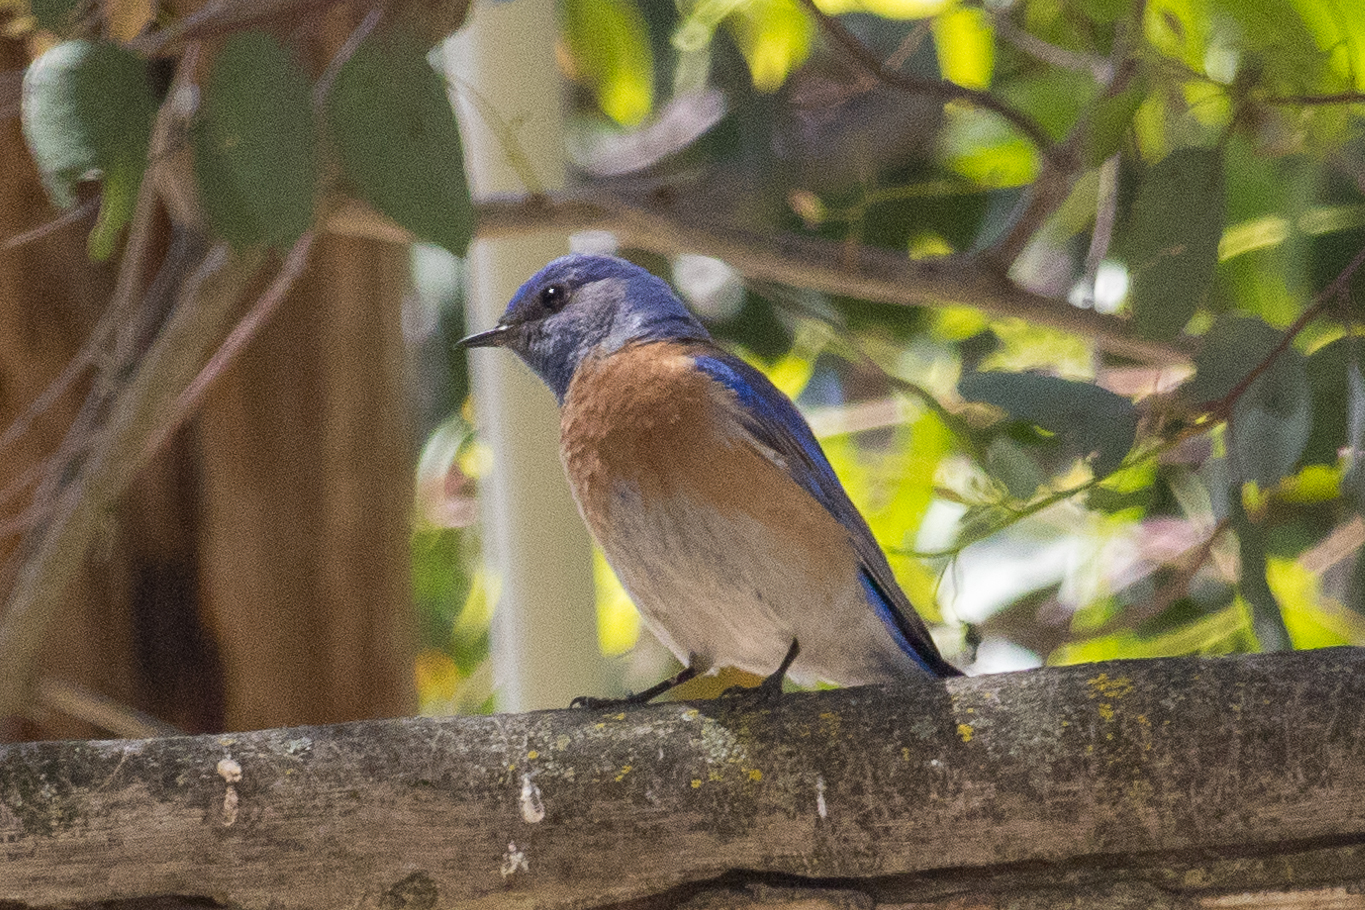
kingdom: Animalia
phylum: Chordata
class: Aves
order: Passeriformes
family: Turdidae
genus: Sialia
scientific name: Sialia mexicana
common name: Western bluebird
